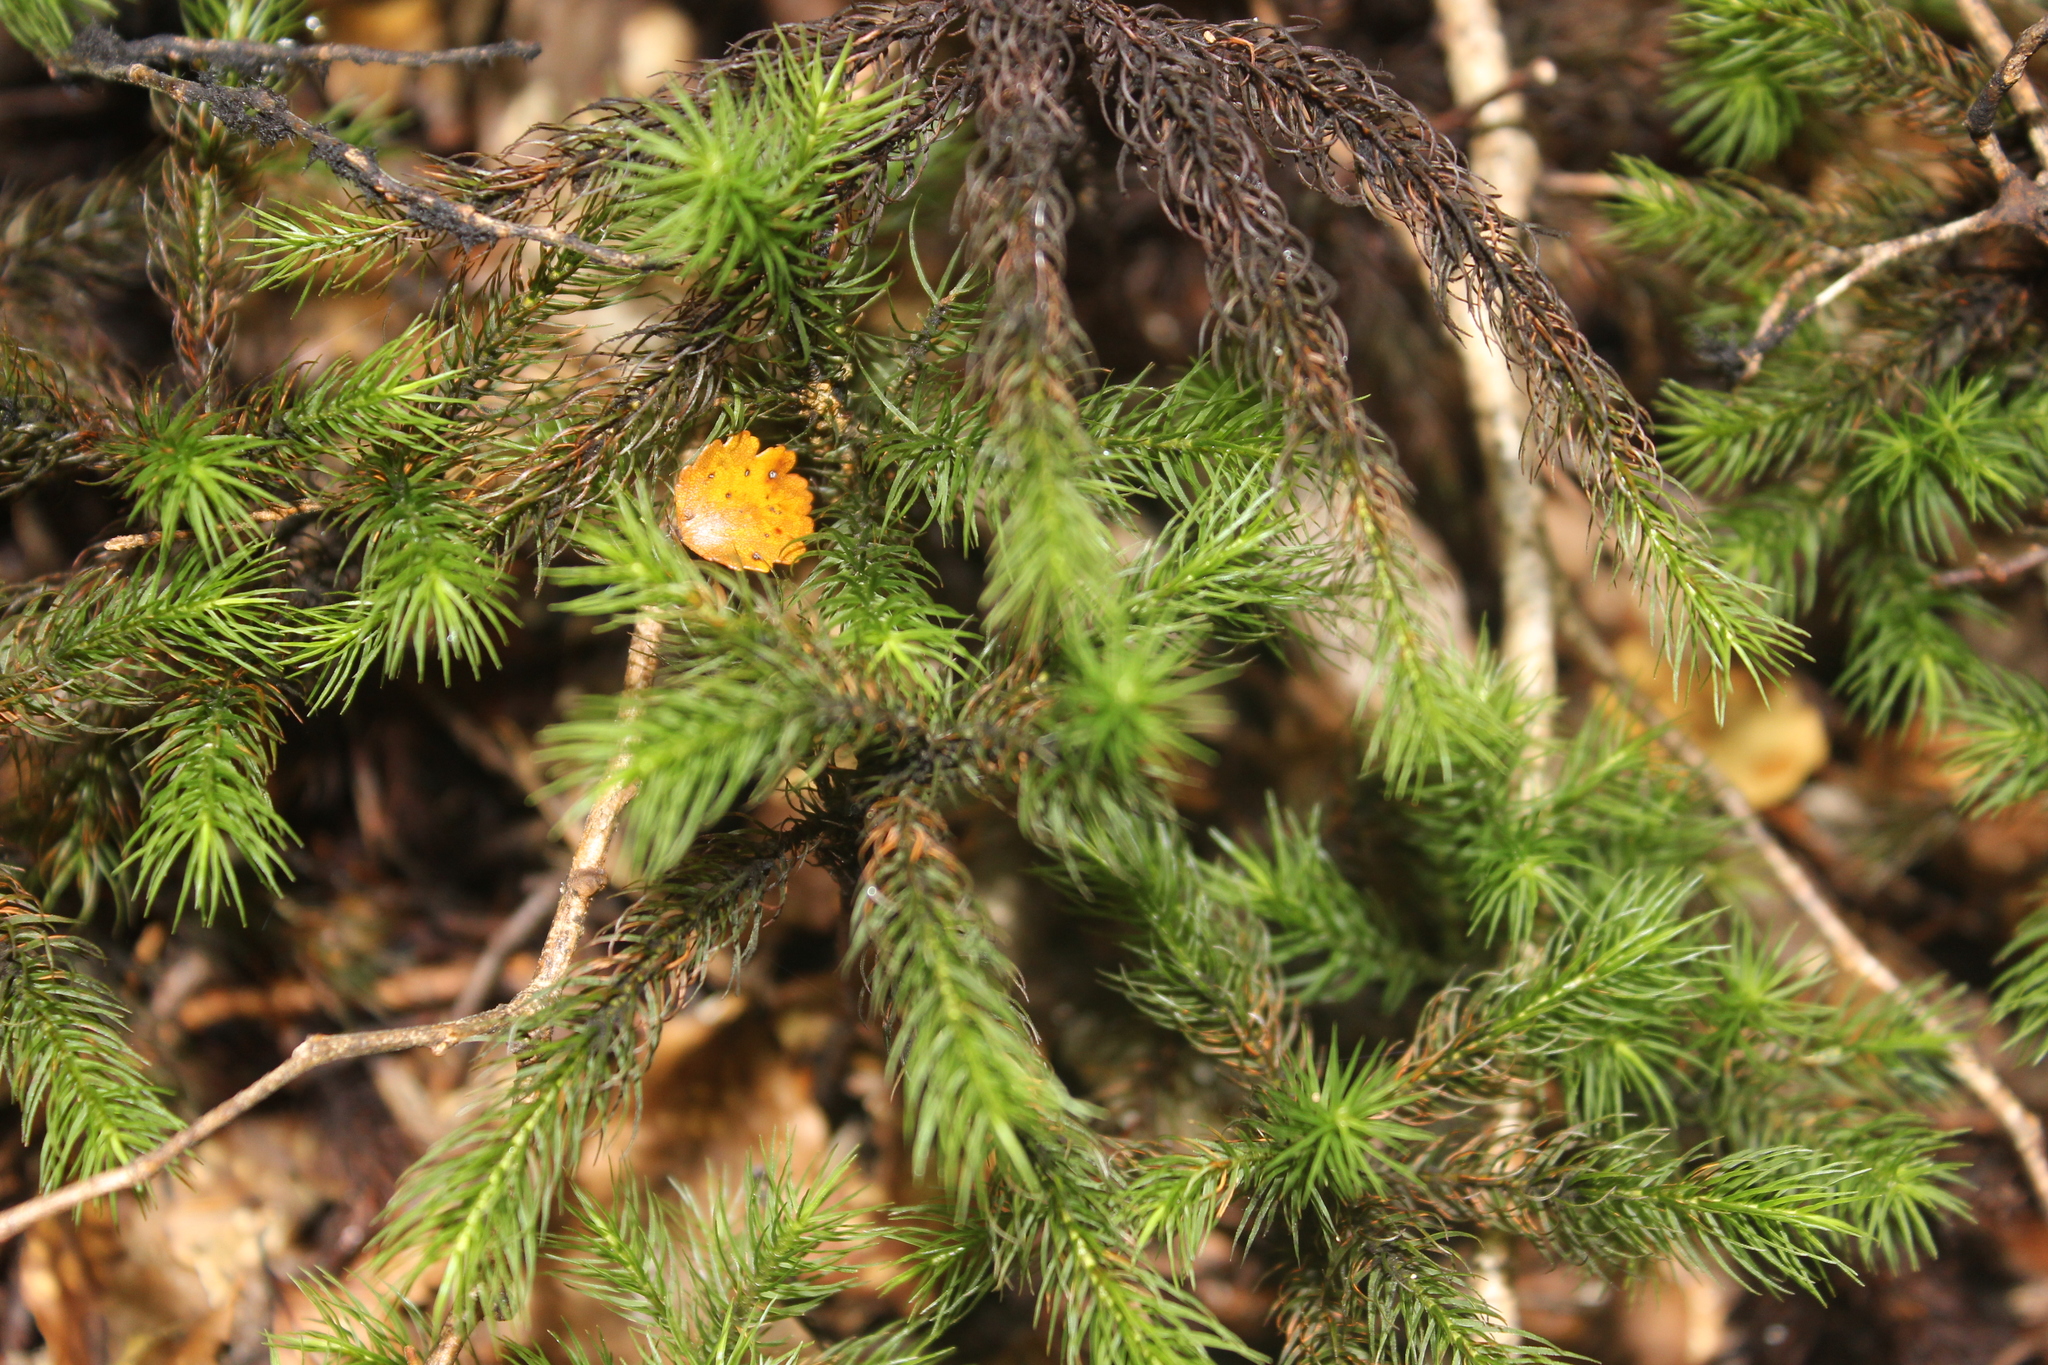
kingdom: Plantae
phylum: Bryophyta
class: Polytrichopsida
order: Polytrichales
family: Polytrichaceae
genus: Dendroligotrichum
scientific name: Dendroligotrichum tongariroense
